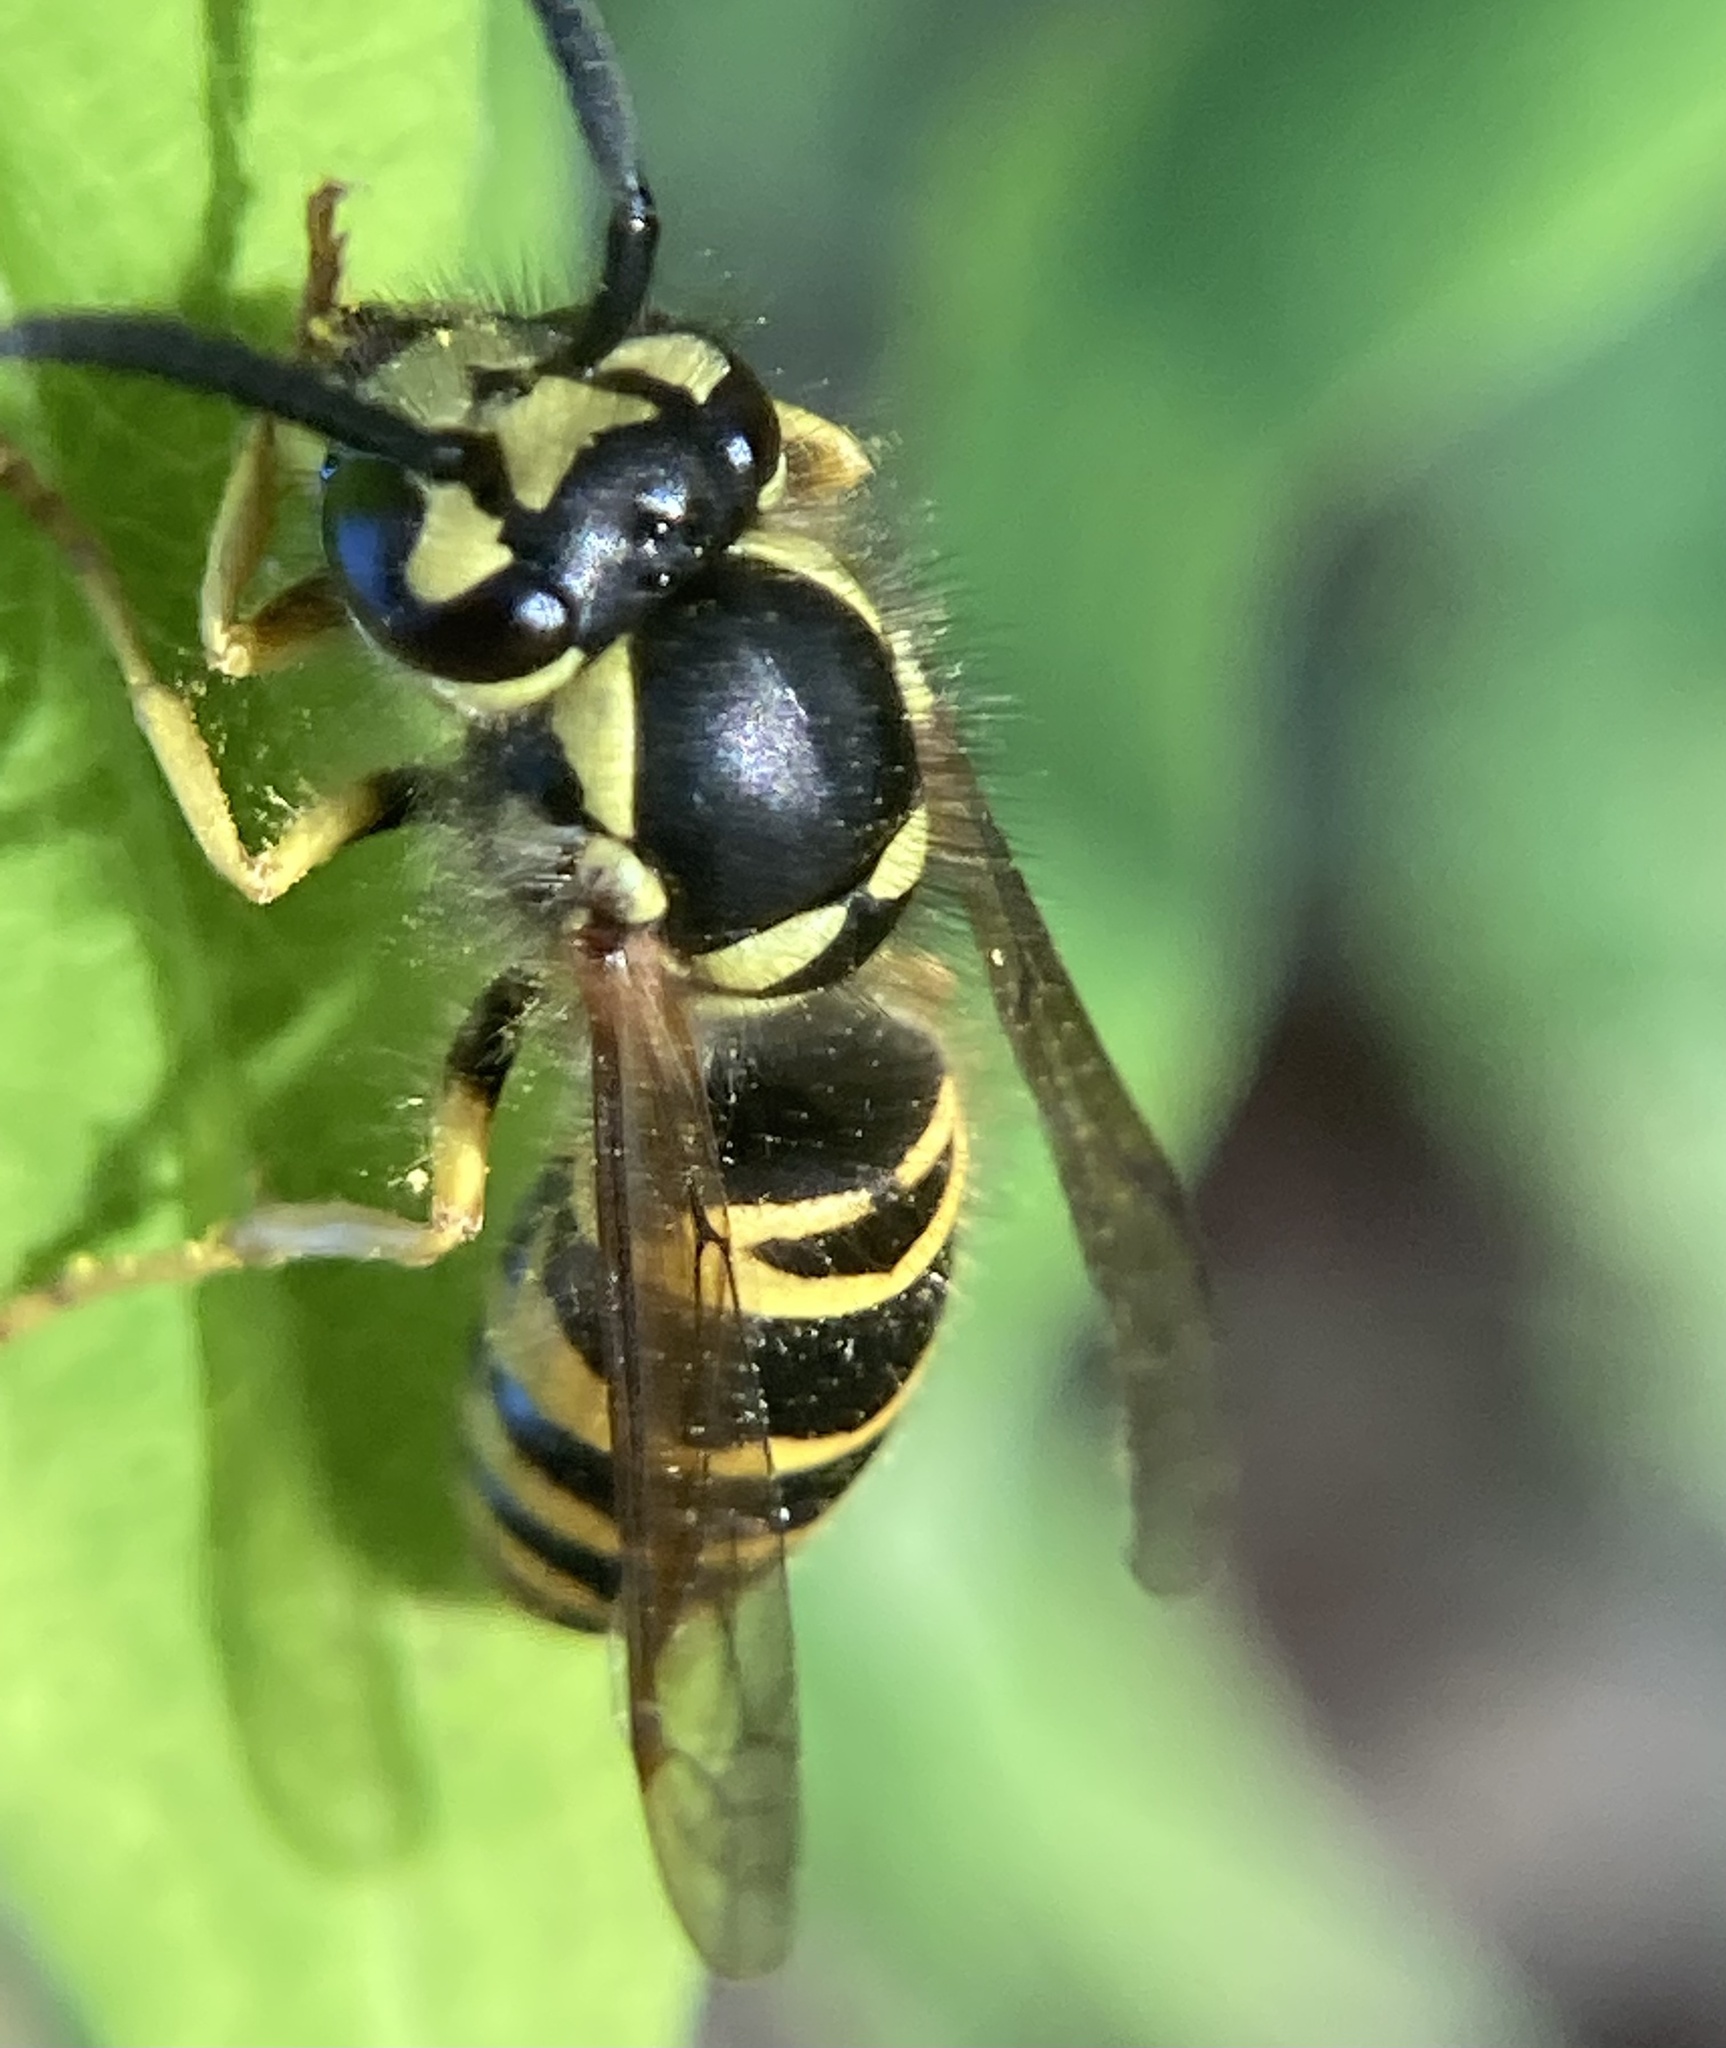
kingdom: Animalia
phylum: Arthropoda
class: Insecta
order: Hymenoptera
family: Vespidae
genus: Vespula
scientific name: Vespula maculifrons
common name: Eastern yellowjacket
